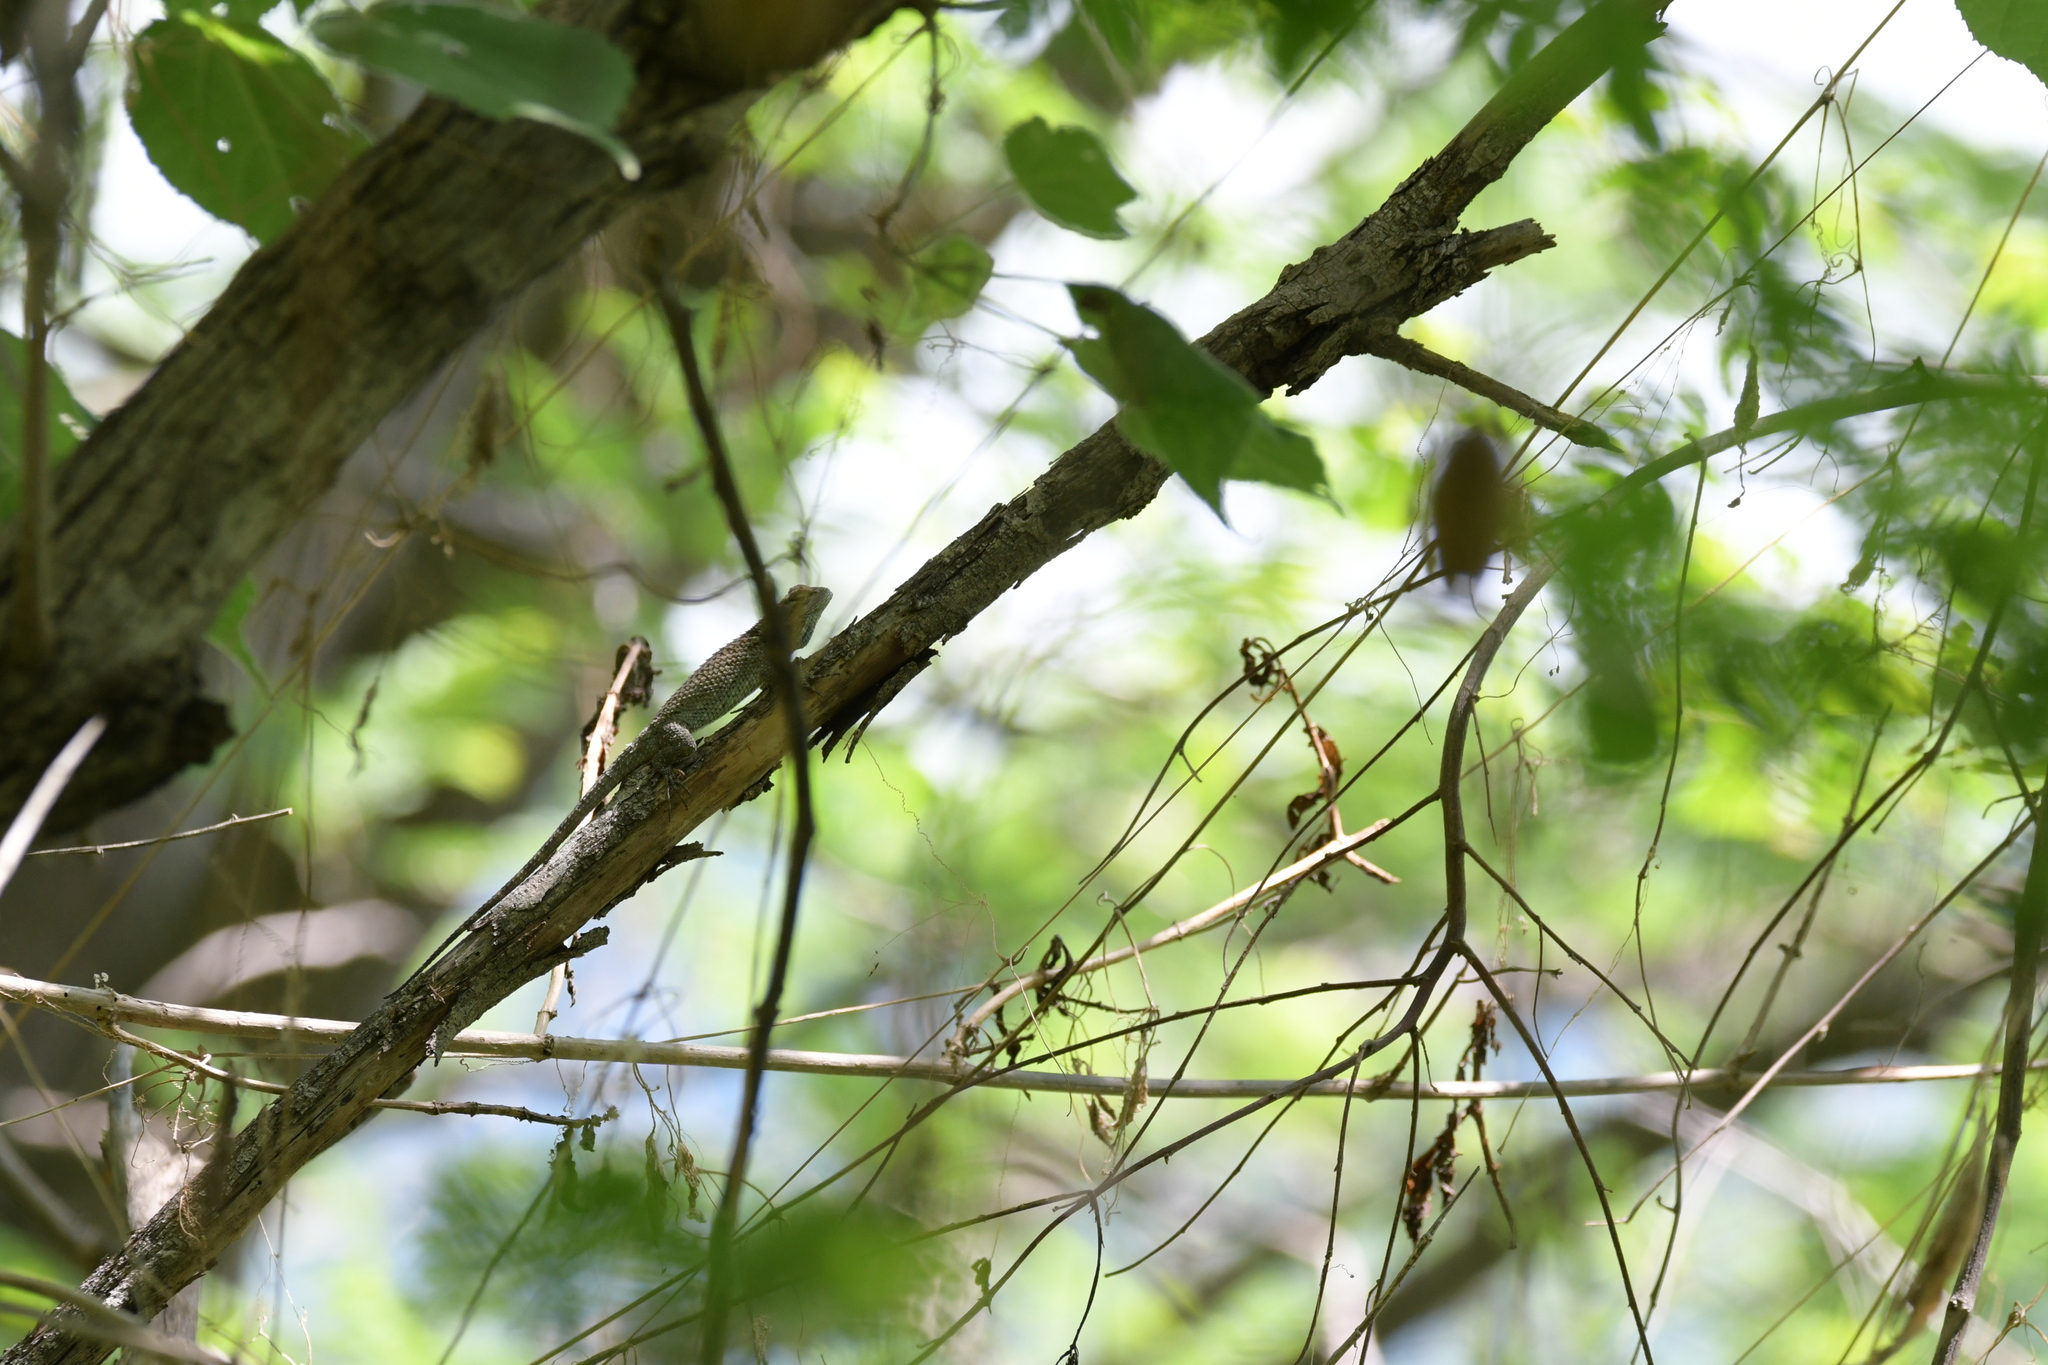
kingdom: Animalia
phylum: Chordata
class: Squamata
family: Phrynosomatidae
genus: Sceloporus
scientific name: Sceloporus clarkii
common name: Clark's spiny lizard
